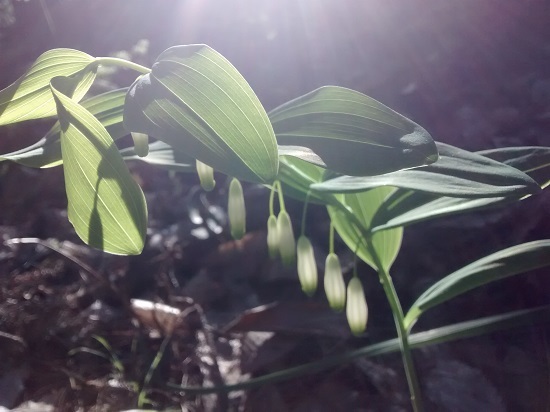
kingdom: Plantae
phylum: Tracheophyta
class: Liliopsida
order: Asparagales
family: Asparagaceae
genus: Polygonatum
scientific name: Polygonatum odoratum
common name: Angular solomon's-seal
